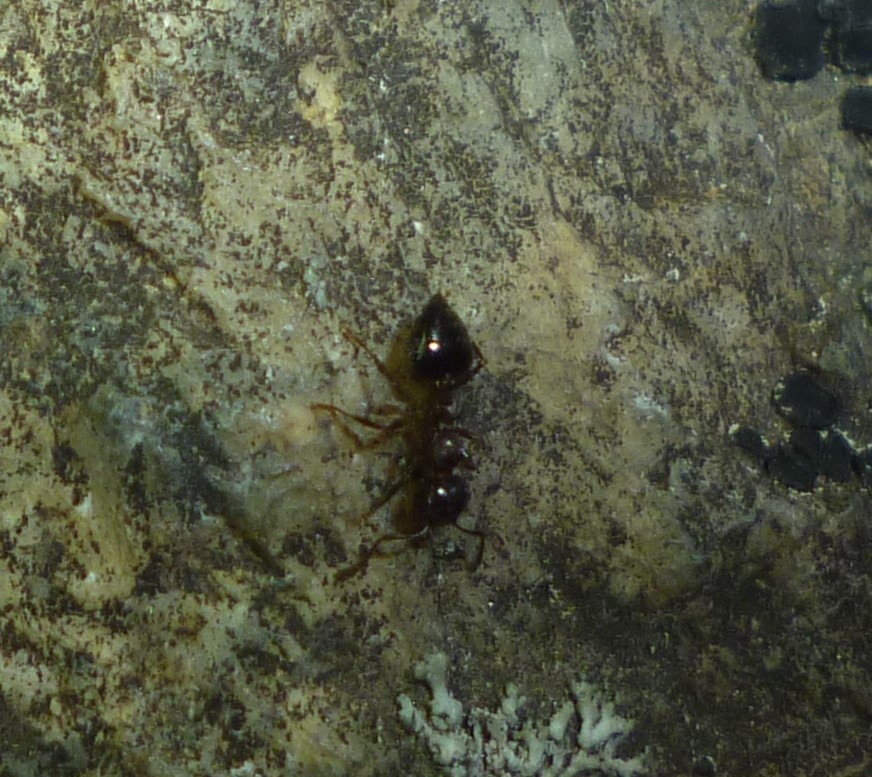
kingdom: Animalia
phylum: Arthropoda
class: Insecta
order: Hymenoptera
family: Formicidae
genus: Crematogaster
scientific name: Crematogaster
